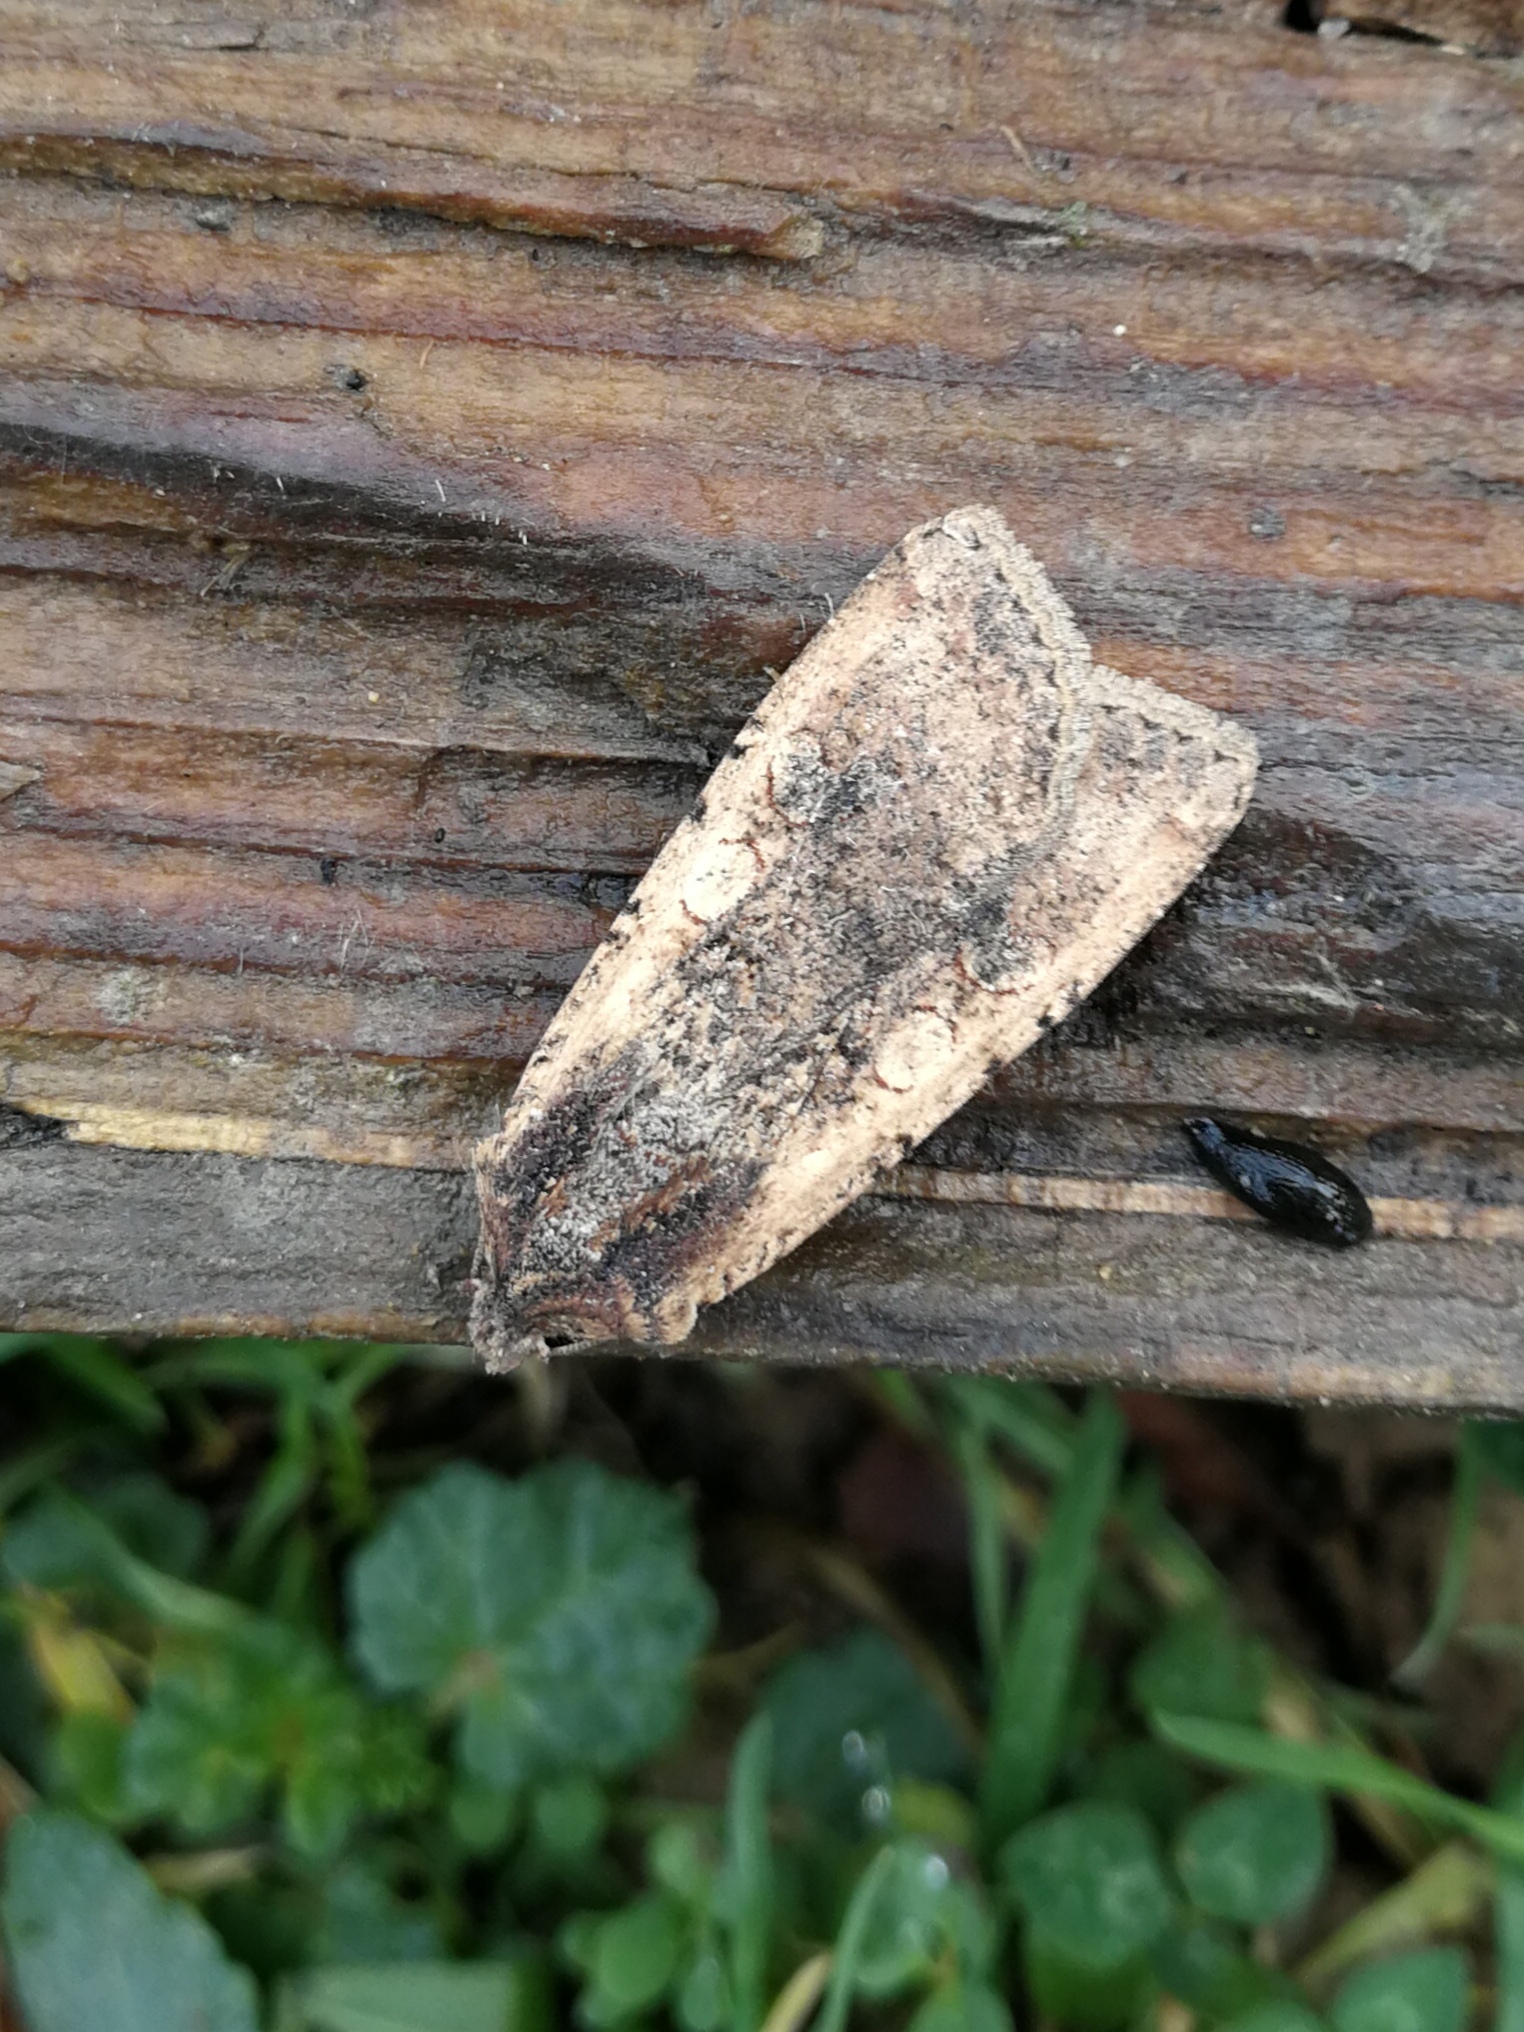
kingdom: Animalia
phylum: Arthropoda
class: Insecta
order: Lepidoptera
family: Noctuidae
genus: Peridroma
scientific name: Peridroma saucia
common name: Pearly underwing
